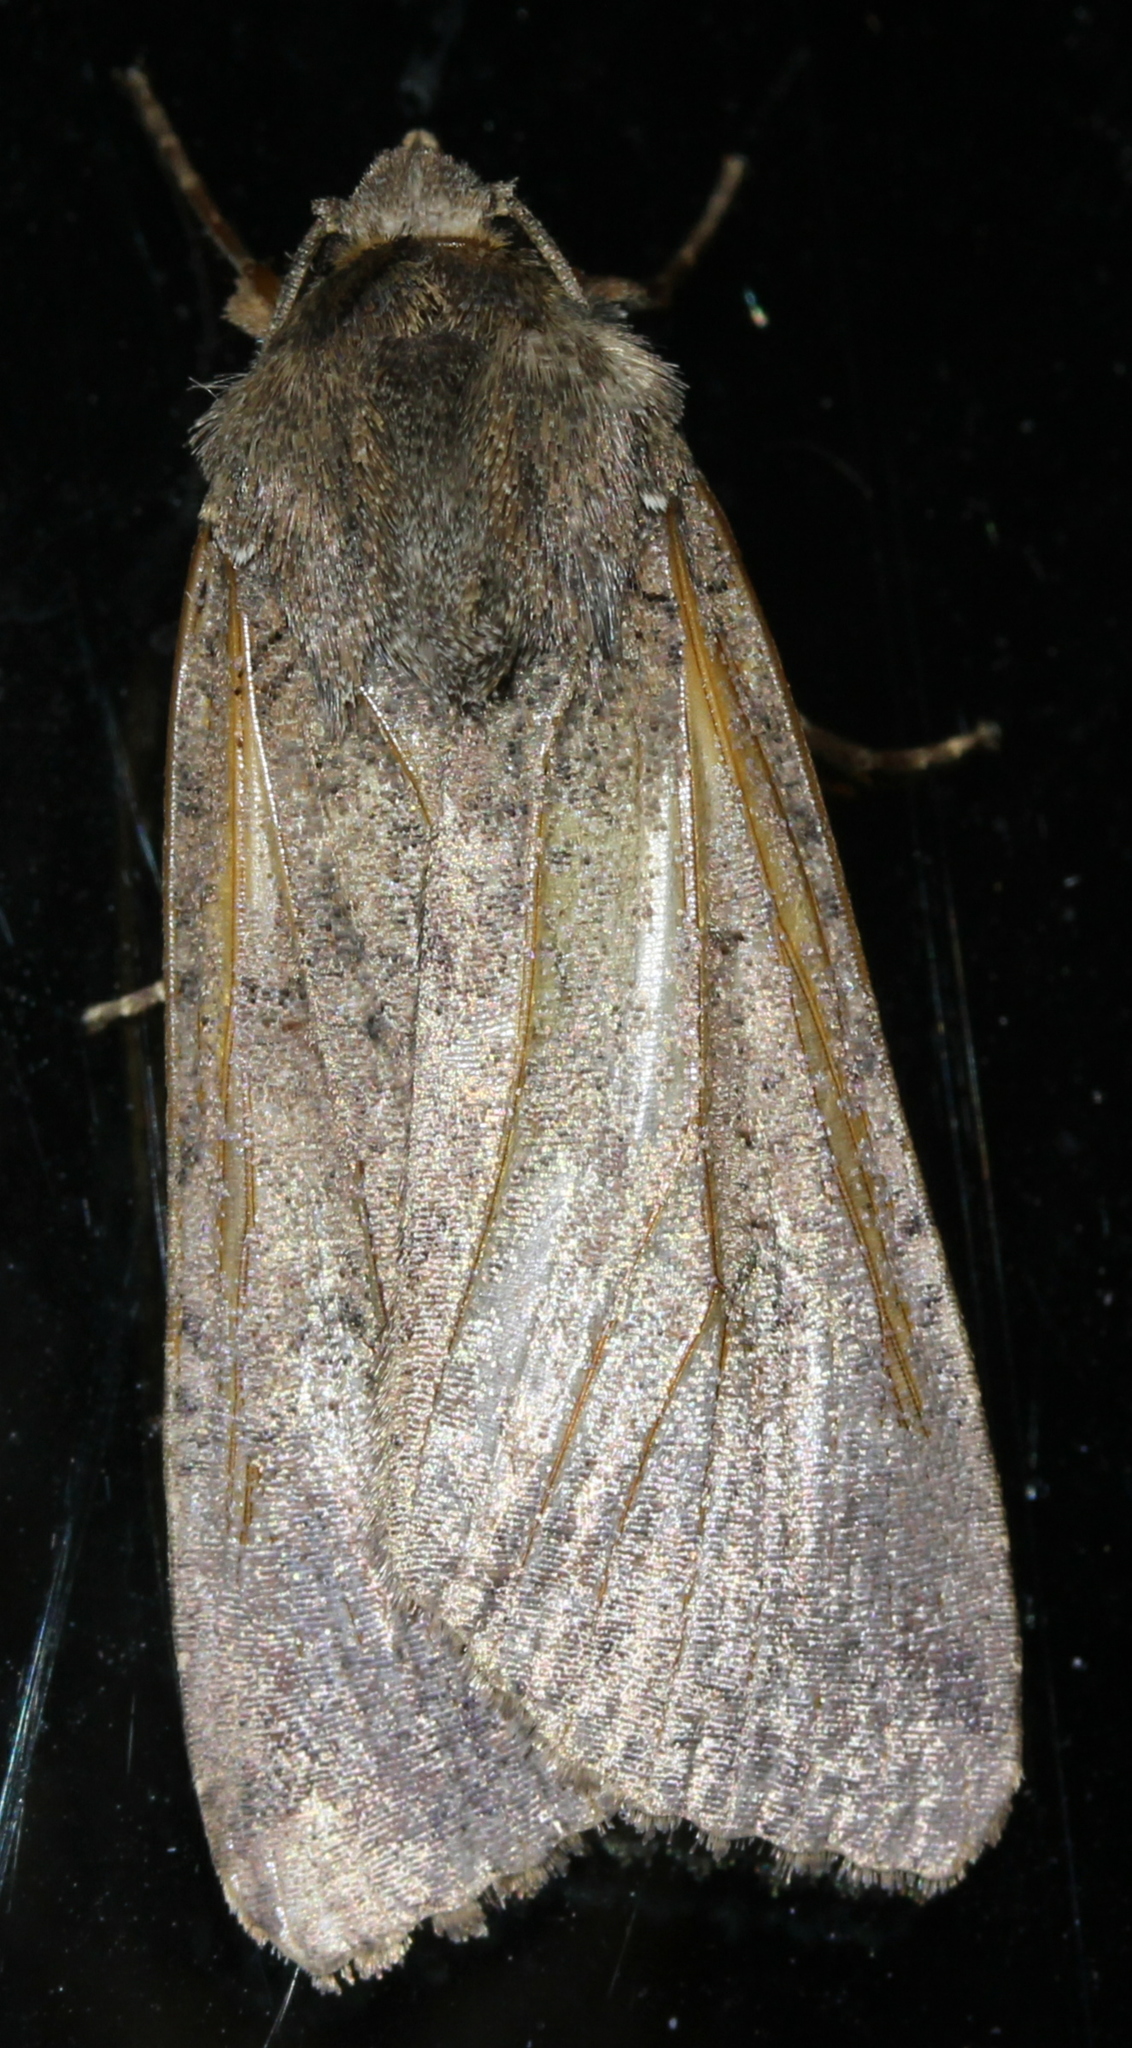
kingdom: Animalia
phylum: Arthropoda
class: Insecta
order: Lepidoptera
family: Noctuidae
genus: Mythimna
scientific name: Mythimna unipuncta
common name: White-speck
